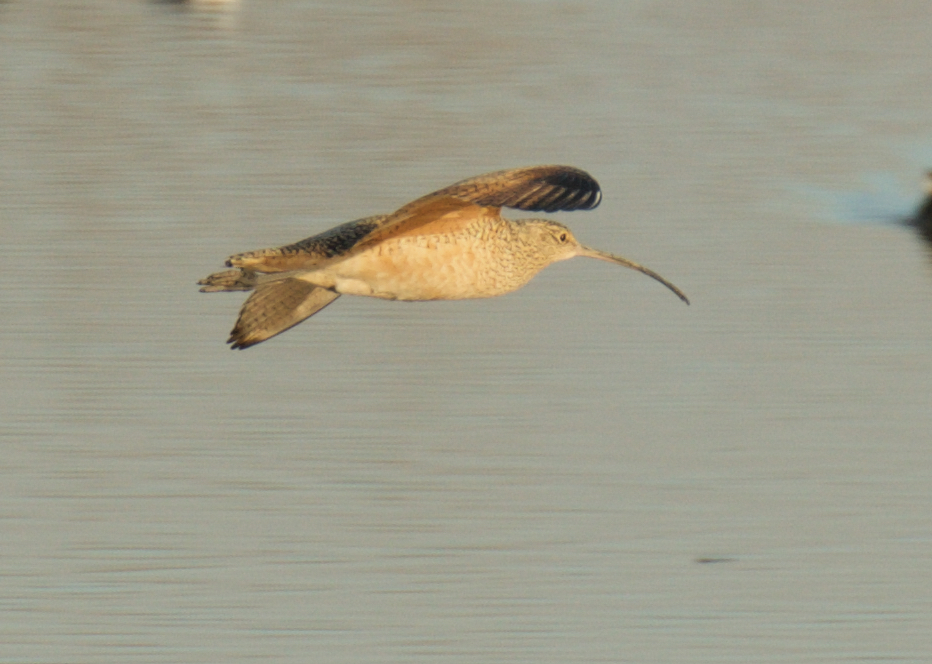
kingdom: Animalia
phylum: Chordata
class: Aves
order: Charadriiformes
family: Scolopacidae
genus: Numenius
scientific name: Numenius americanus
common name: Long-billed curlew
